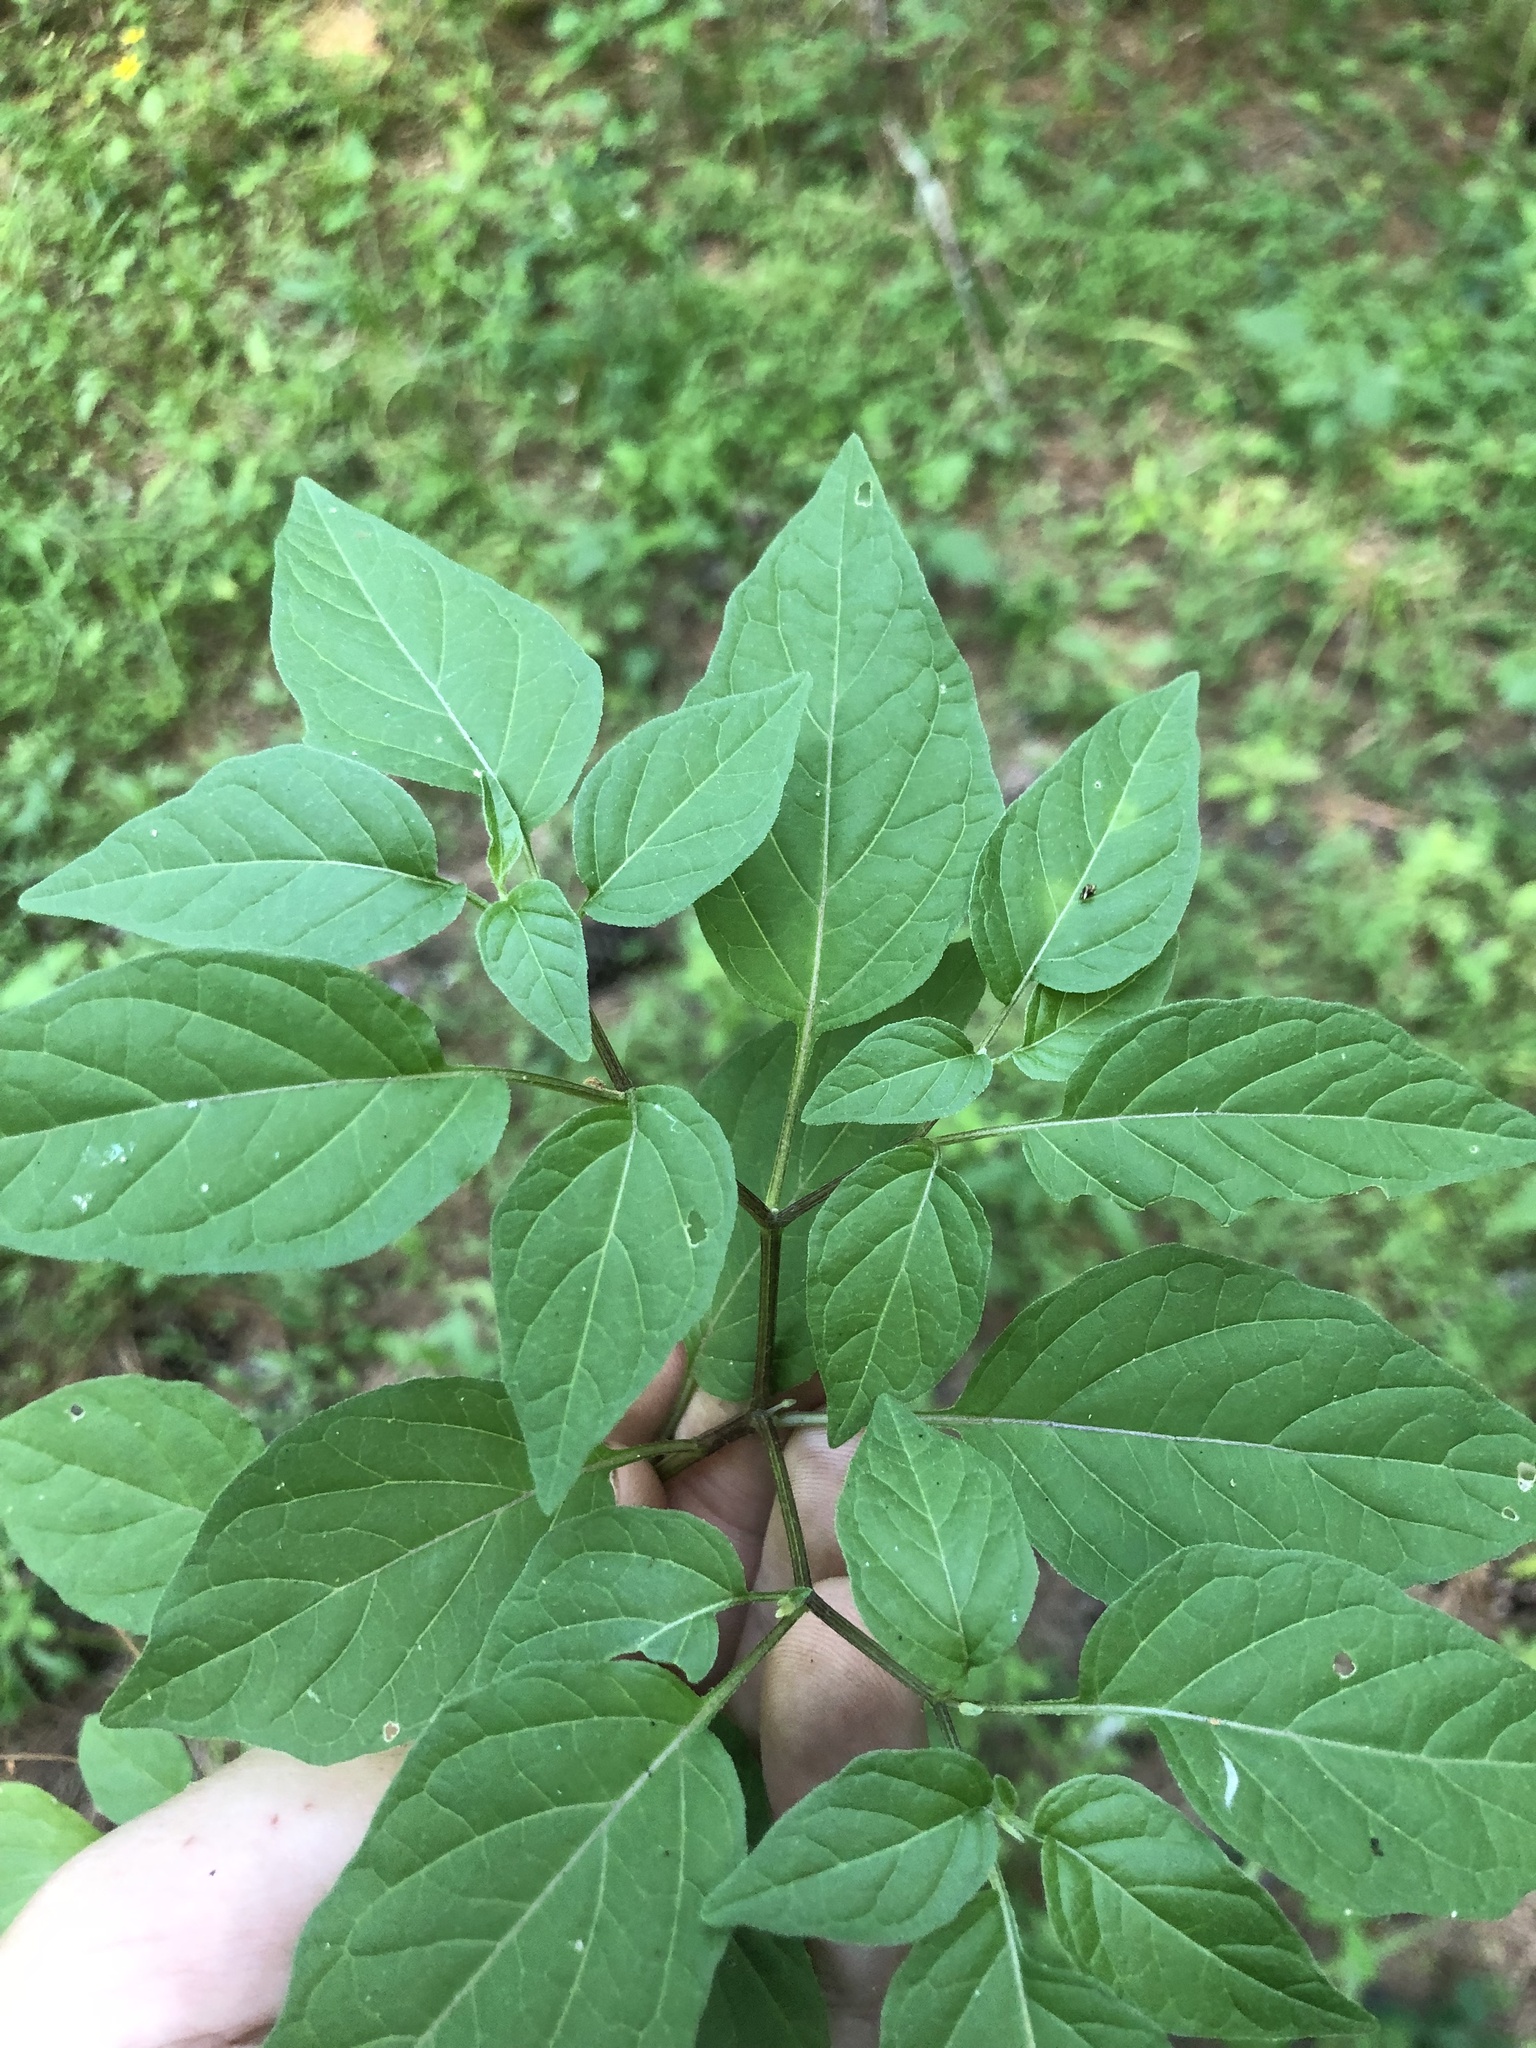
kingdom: Plantae
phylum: Tracheophyta
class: Magnoliopsida
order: Solanales
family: Solanaceae
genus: Physalis
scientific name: Physalis longifolia
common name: Common ground-cherry
